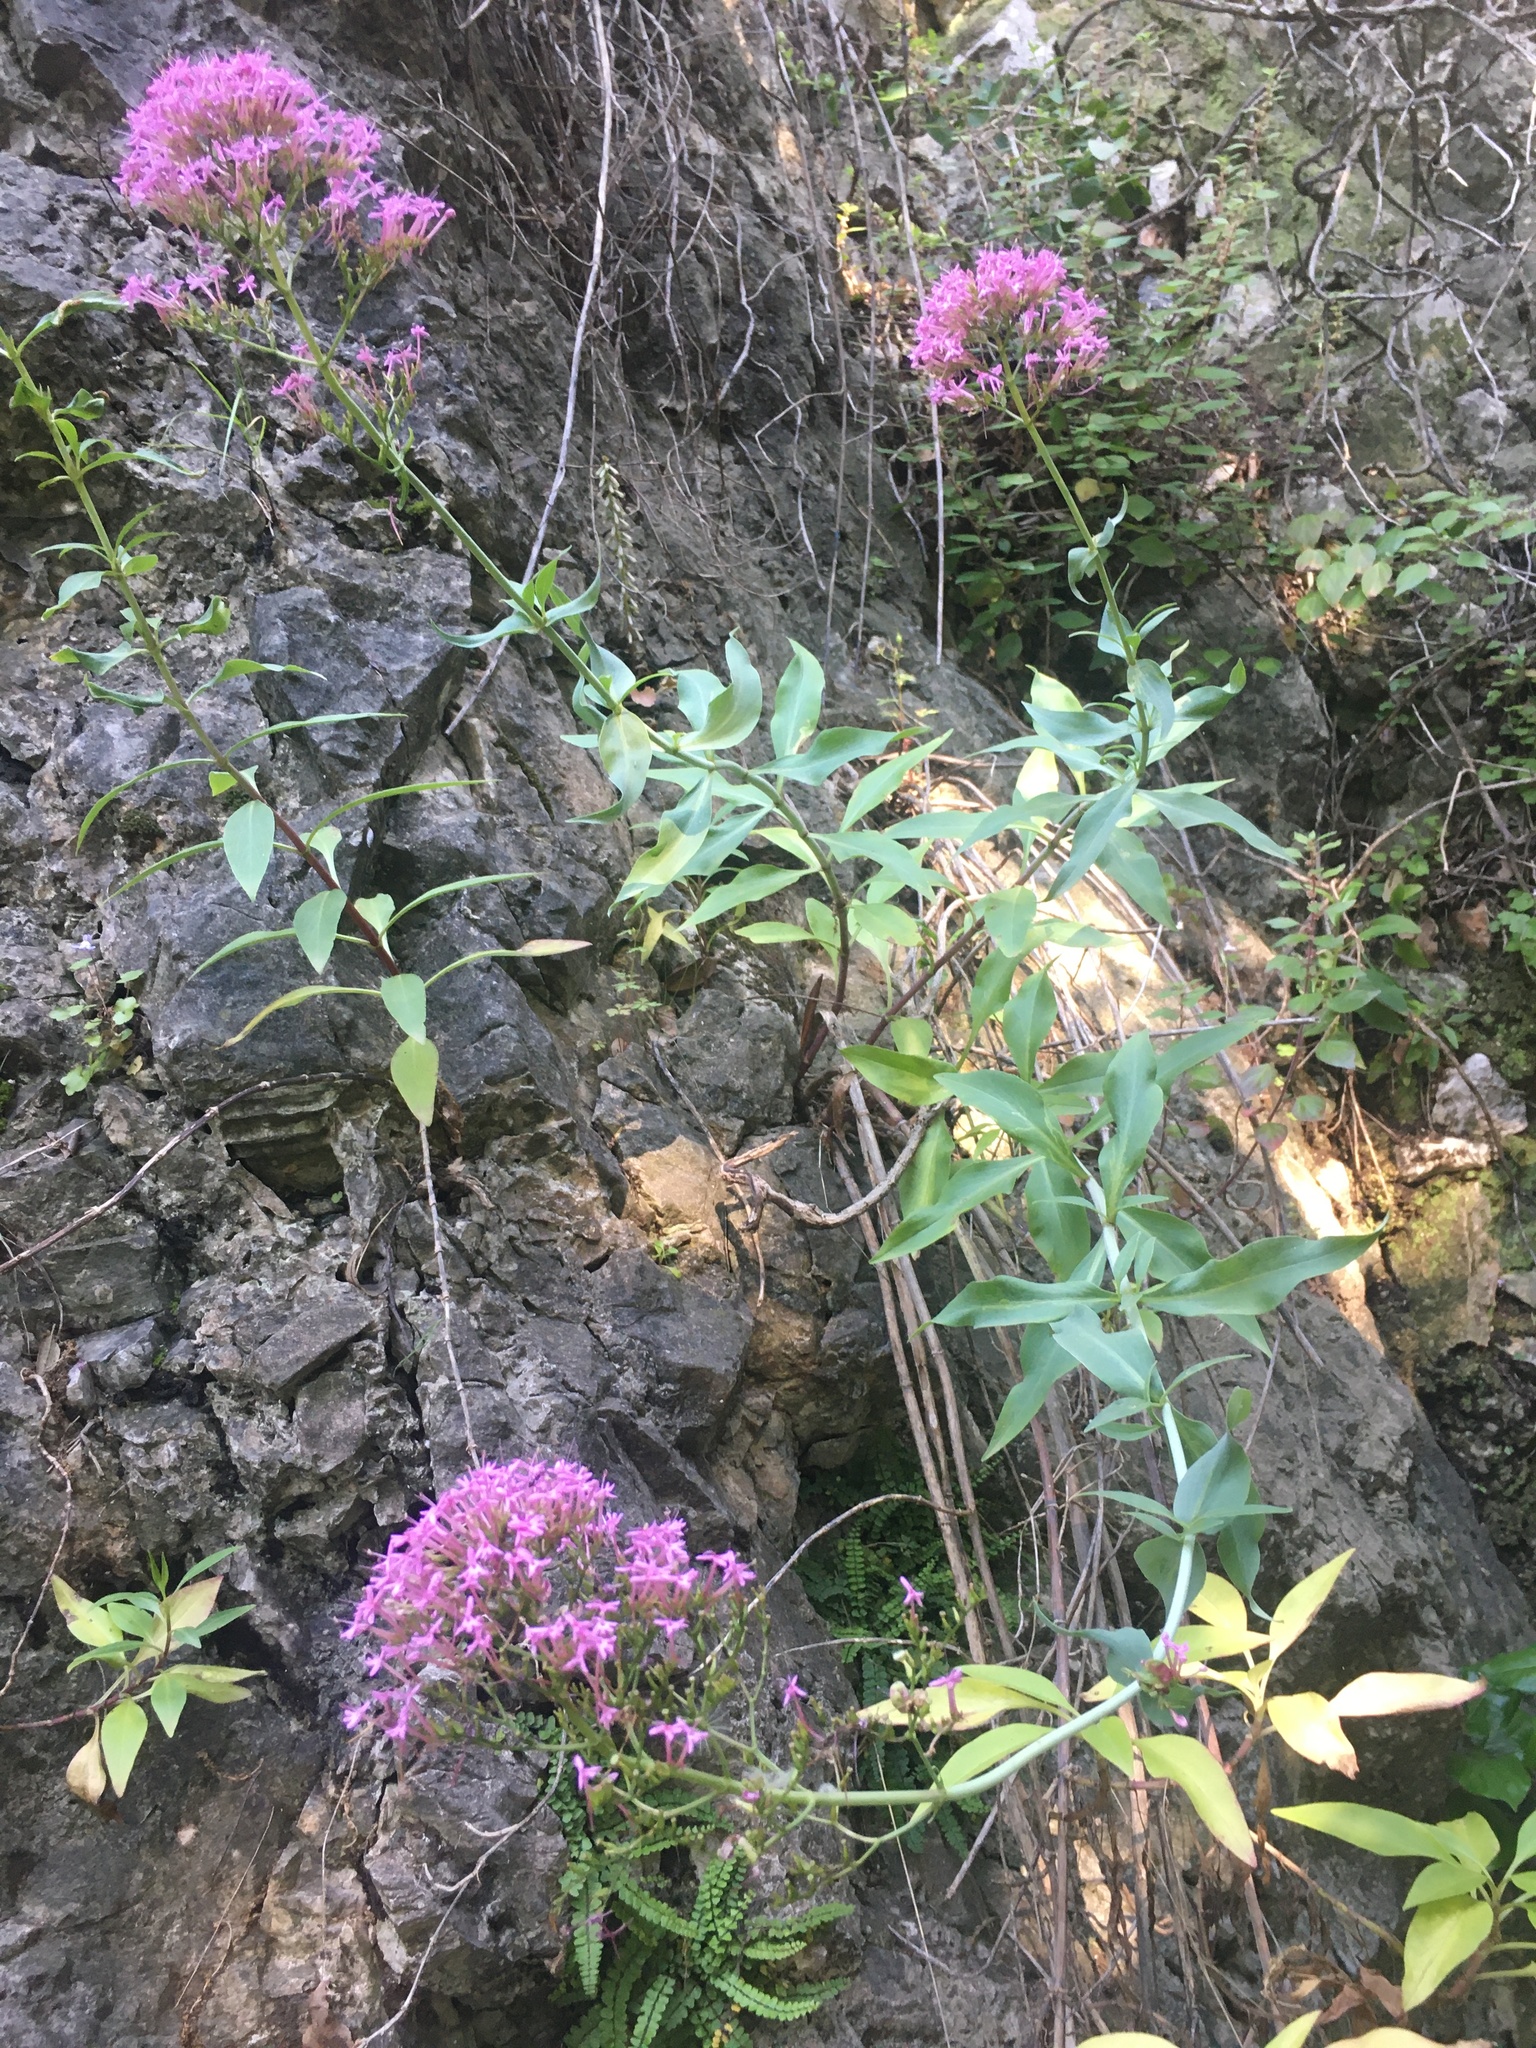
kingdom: Plantae
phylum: Tracheophyta
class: Magnoliopsida
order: Dipsacales
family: Caprifoliaceae
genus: Centranthus
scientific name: Centranthus ruber
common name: Red valerian
